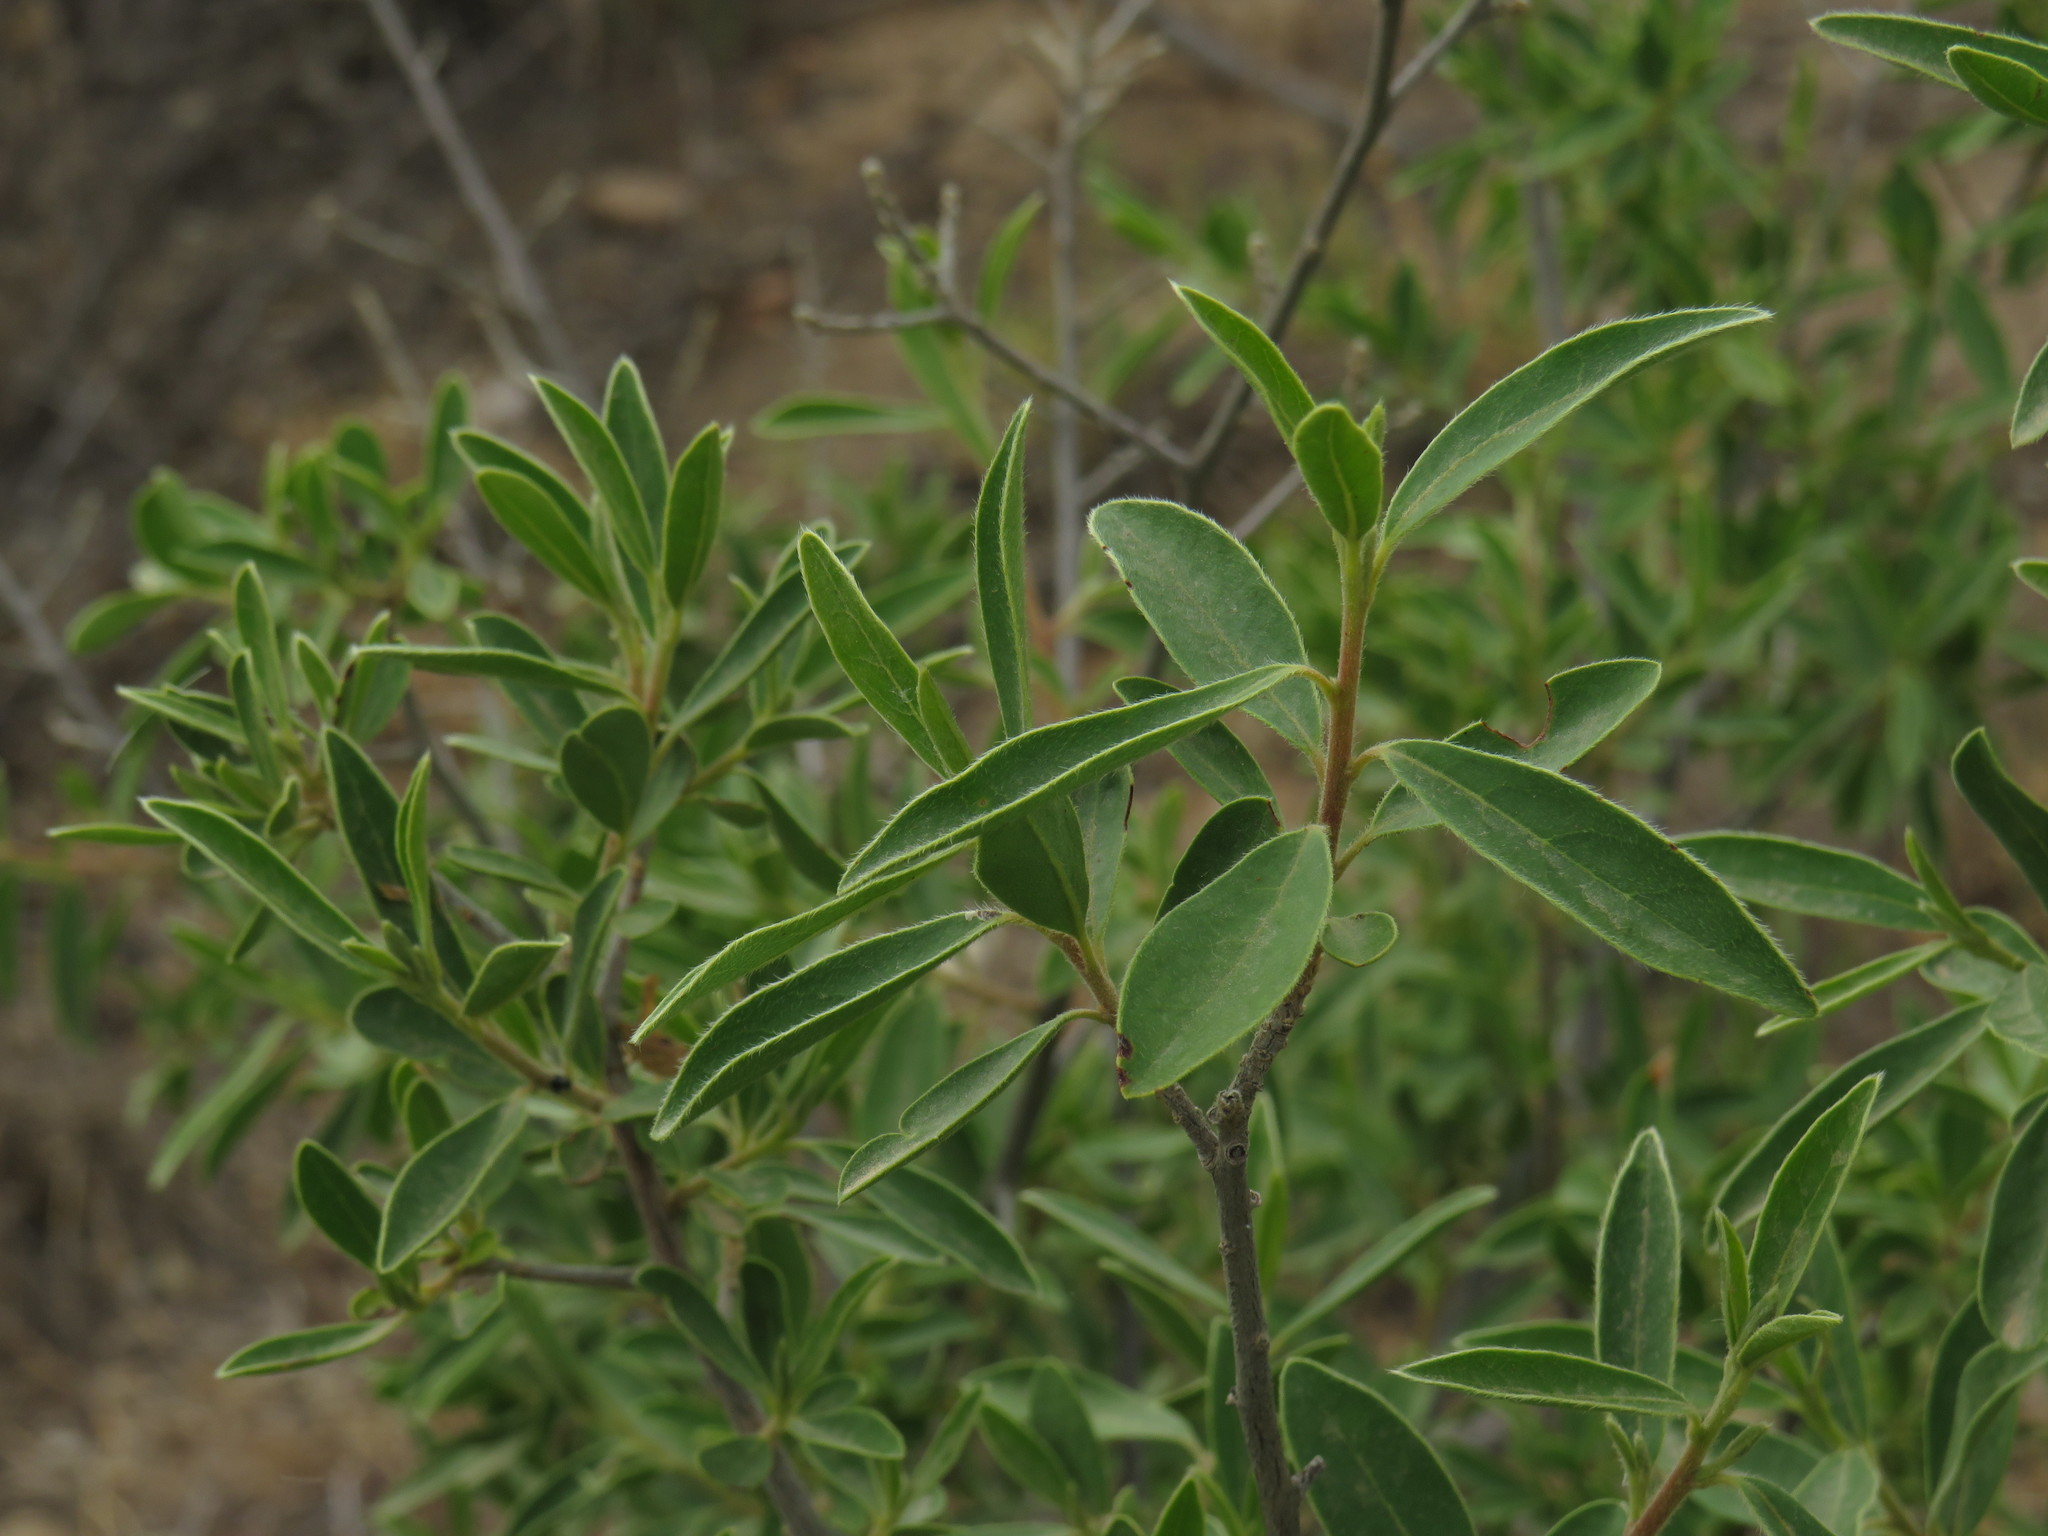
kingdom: Plantae
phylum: Tracheophyta
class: Magnoliopsida
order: Ericales
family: Ebenaceae
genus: Diospyros
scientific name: Diospyros lycioides
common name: Red star apple
